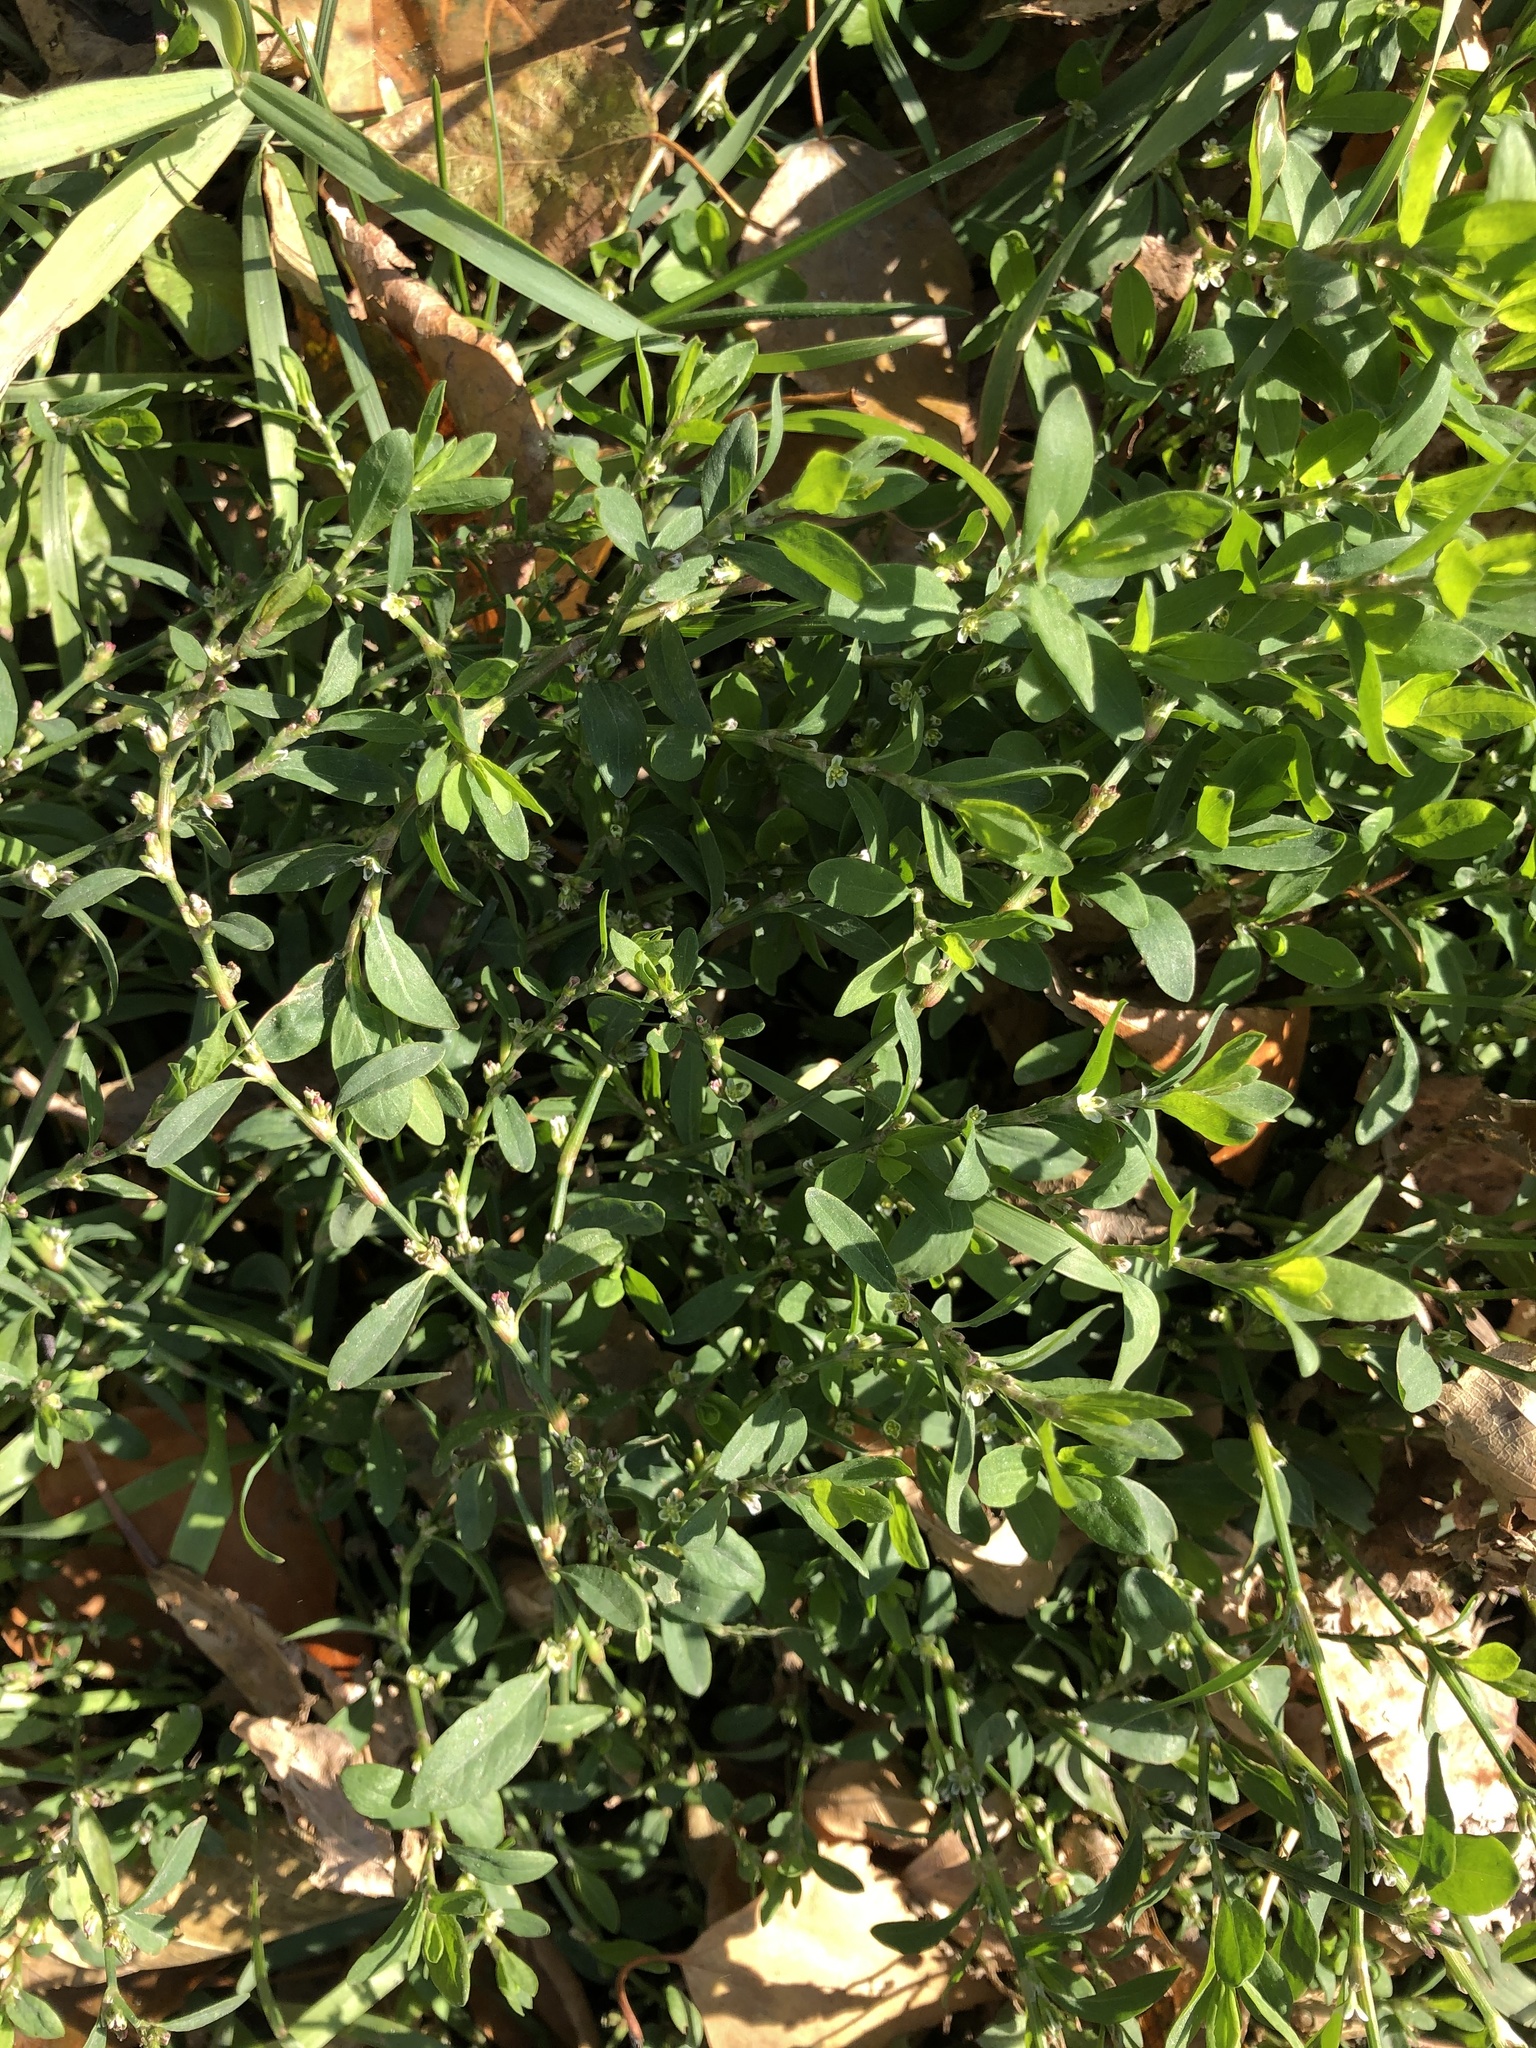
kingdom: Plantae
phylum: Tracheophyta
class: Magnoliopsida
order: Caryophyllales
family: Polygonaceae
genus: Polygonum
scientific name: Polygonum aviculare
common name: Prostrate knotweed
